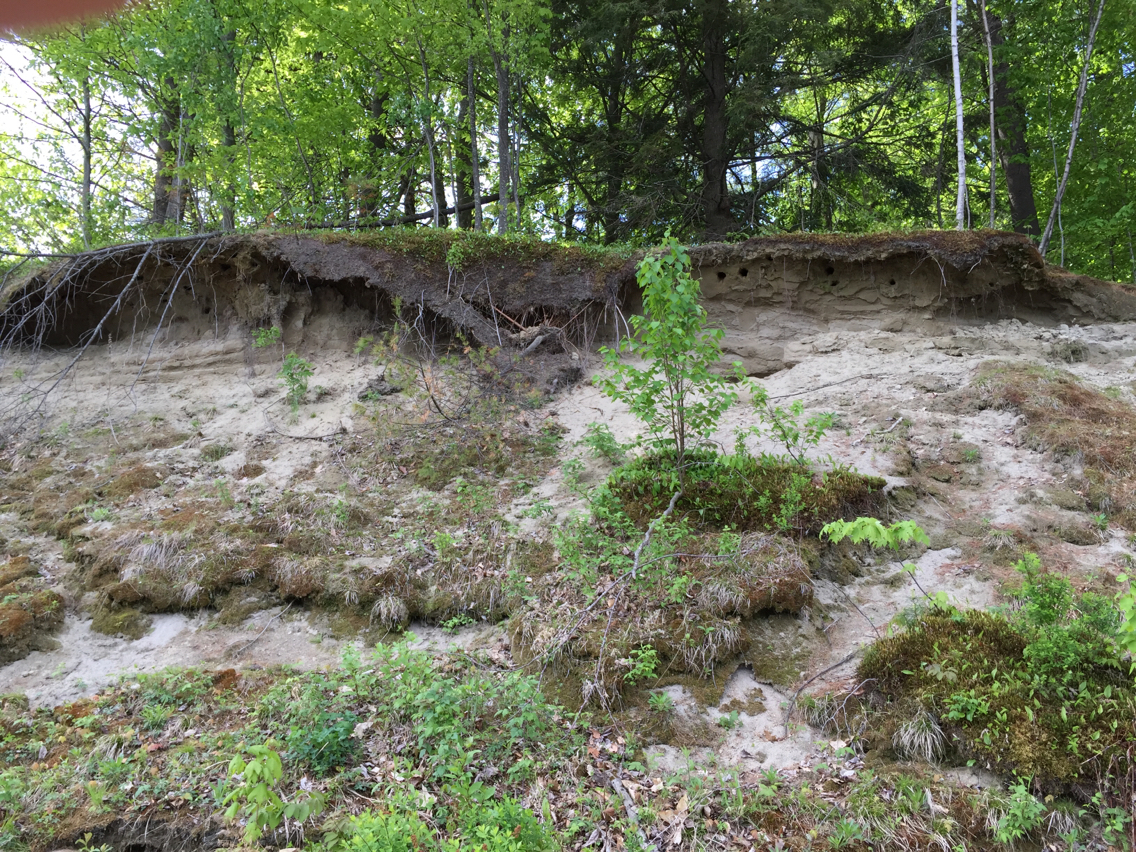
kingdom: Animalia
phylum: Chordata
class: Aves
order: Passeriformes
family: Hirundinidae
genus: Riparia
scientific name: Riparia riparia
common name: Sand martin
